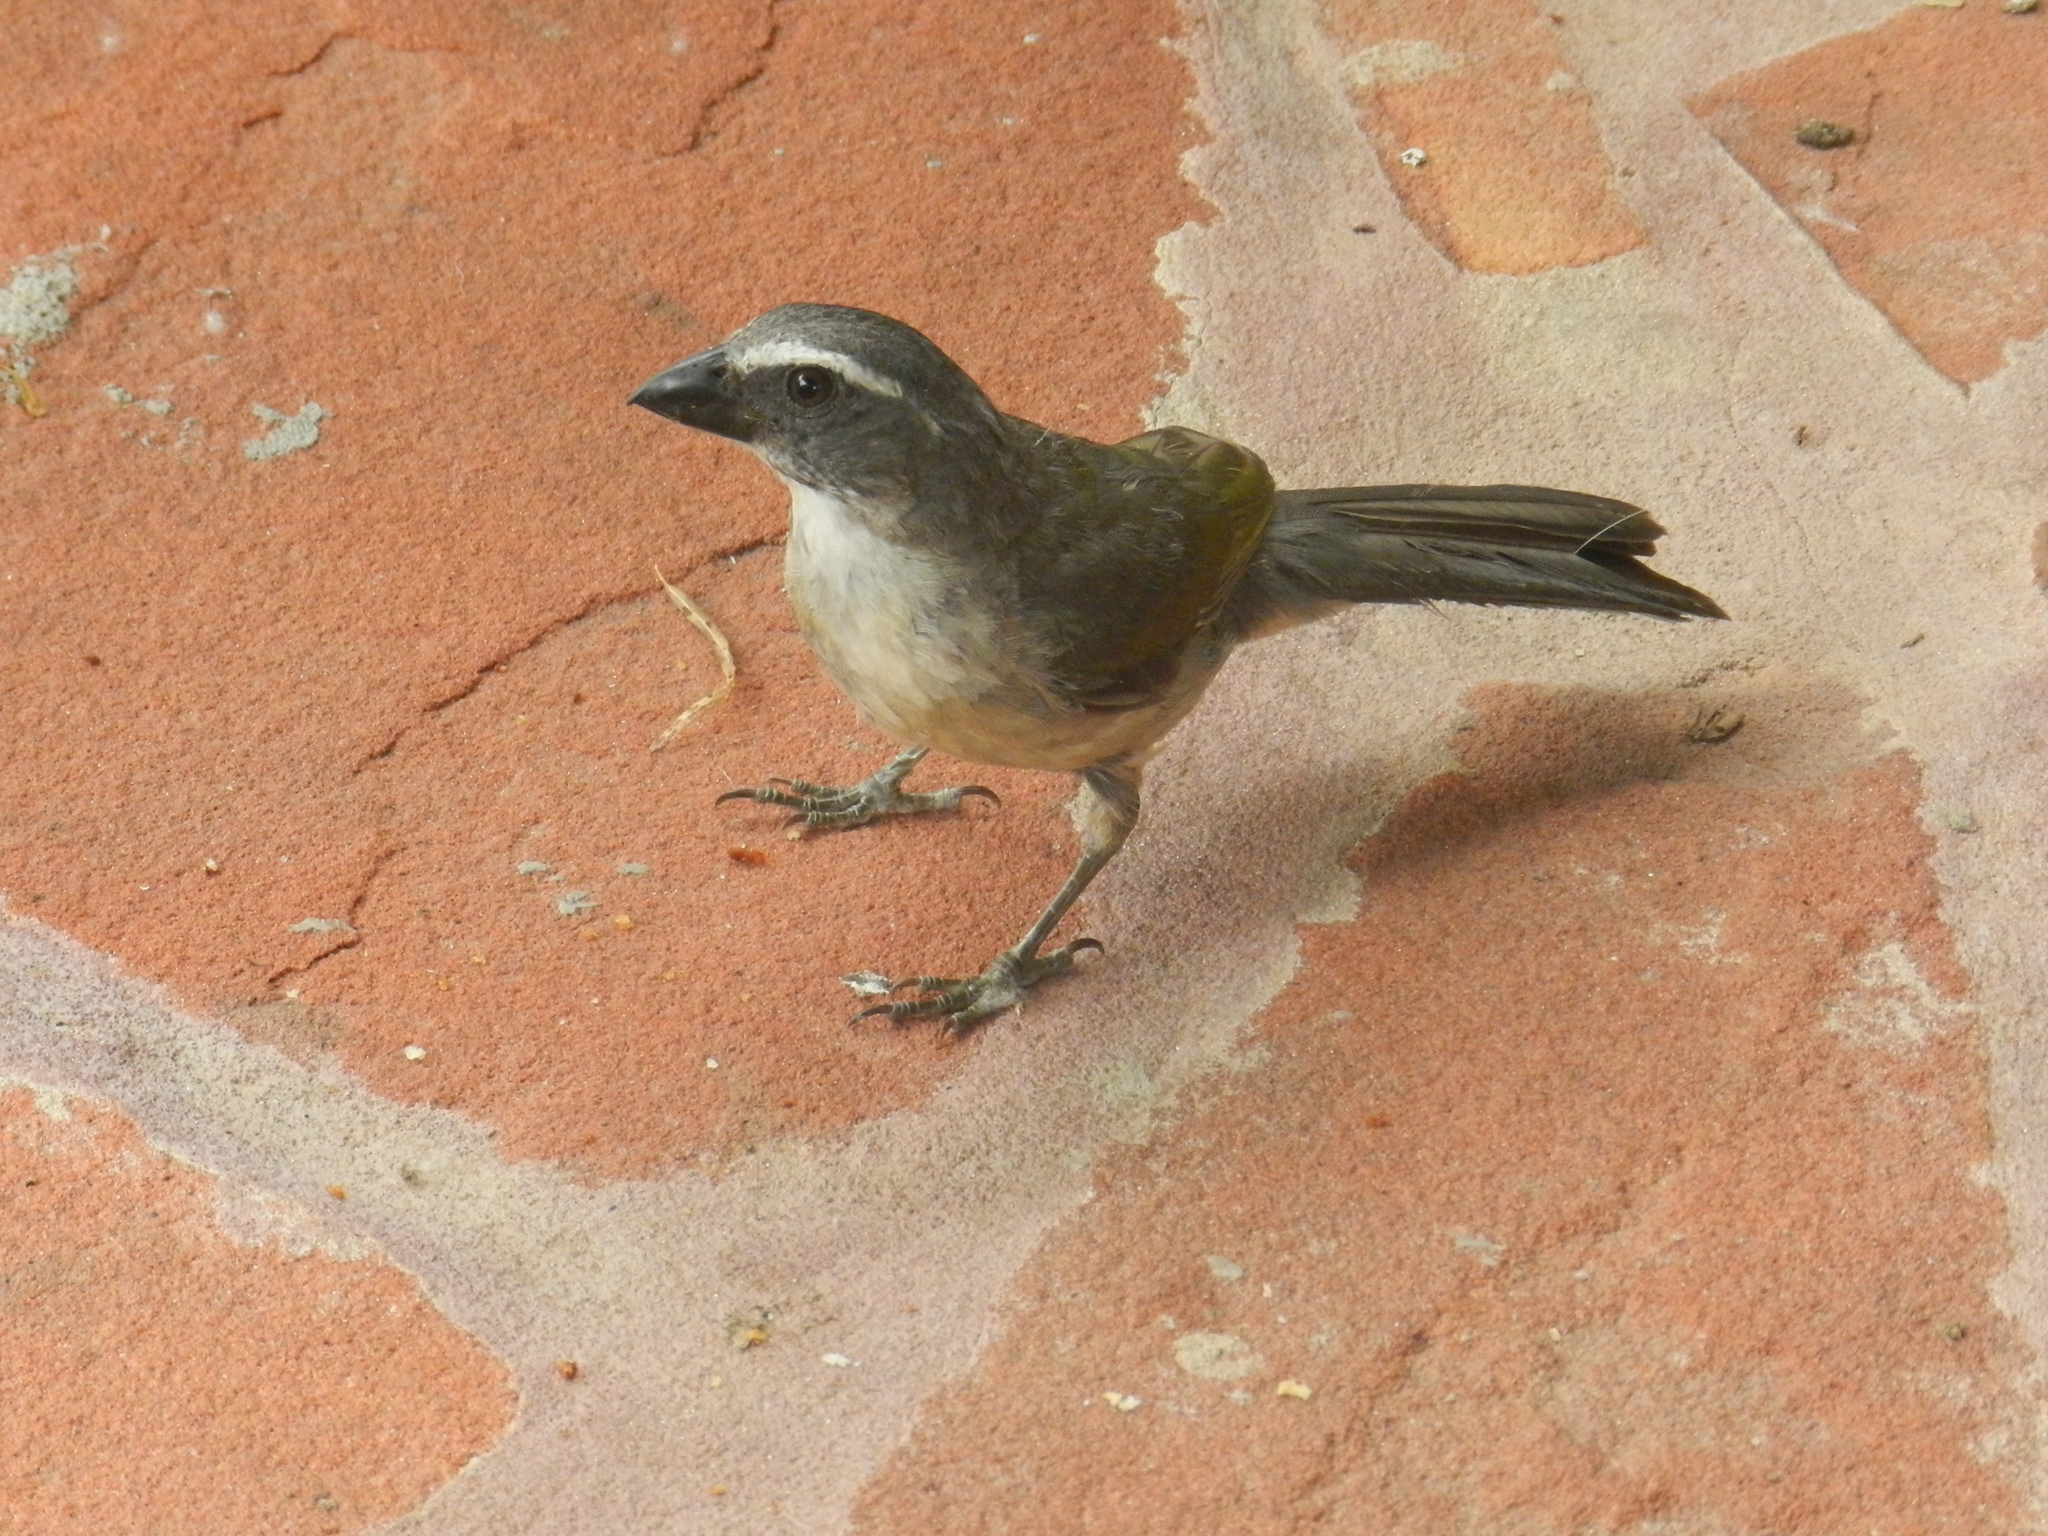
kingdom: Animalia
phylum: Chordata
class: Aves
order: Passeriformes
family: Thraupidae
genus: Saltator
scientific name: Saltator similis
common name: Green-winged saltator
